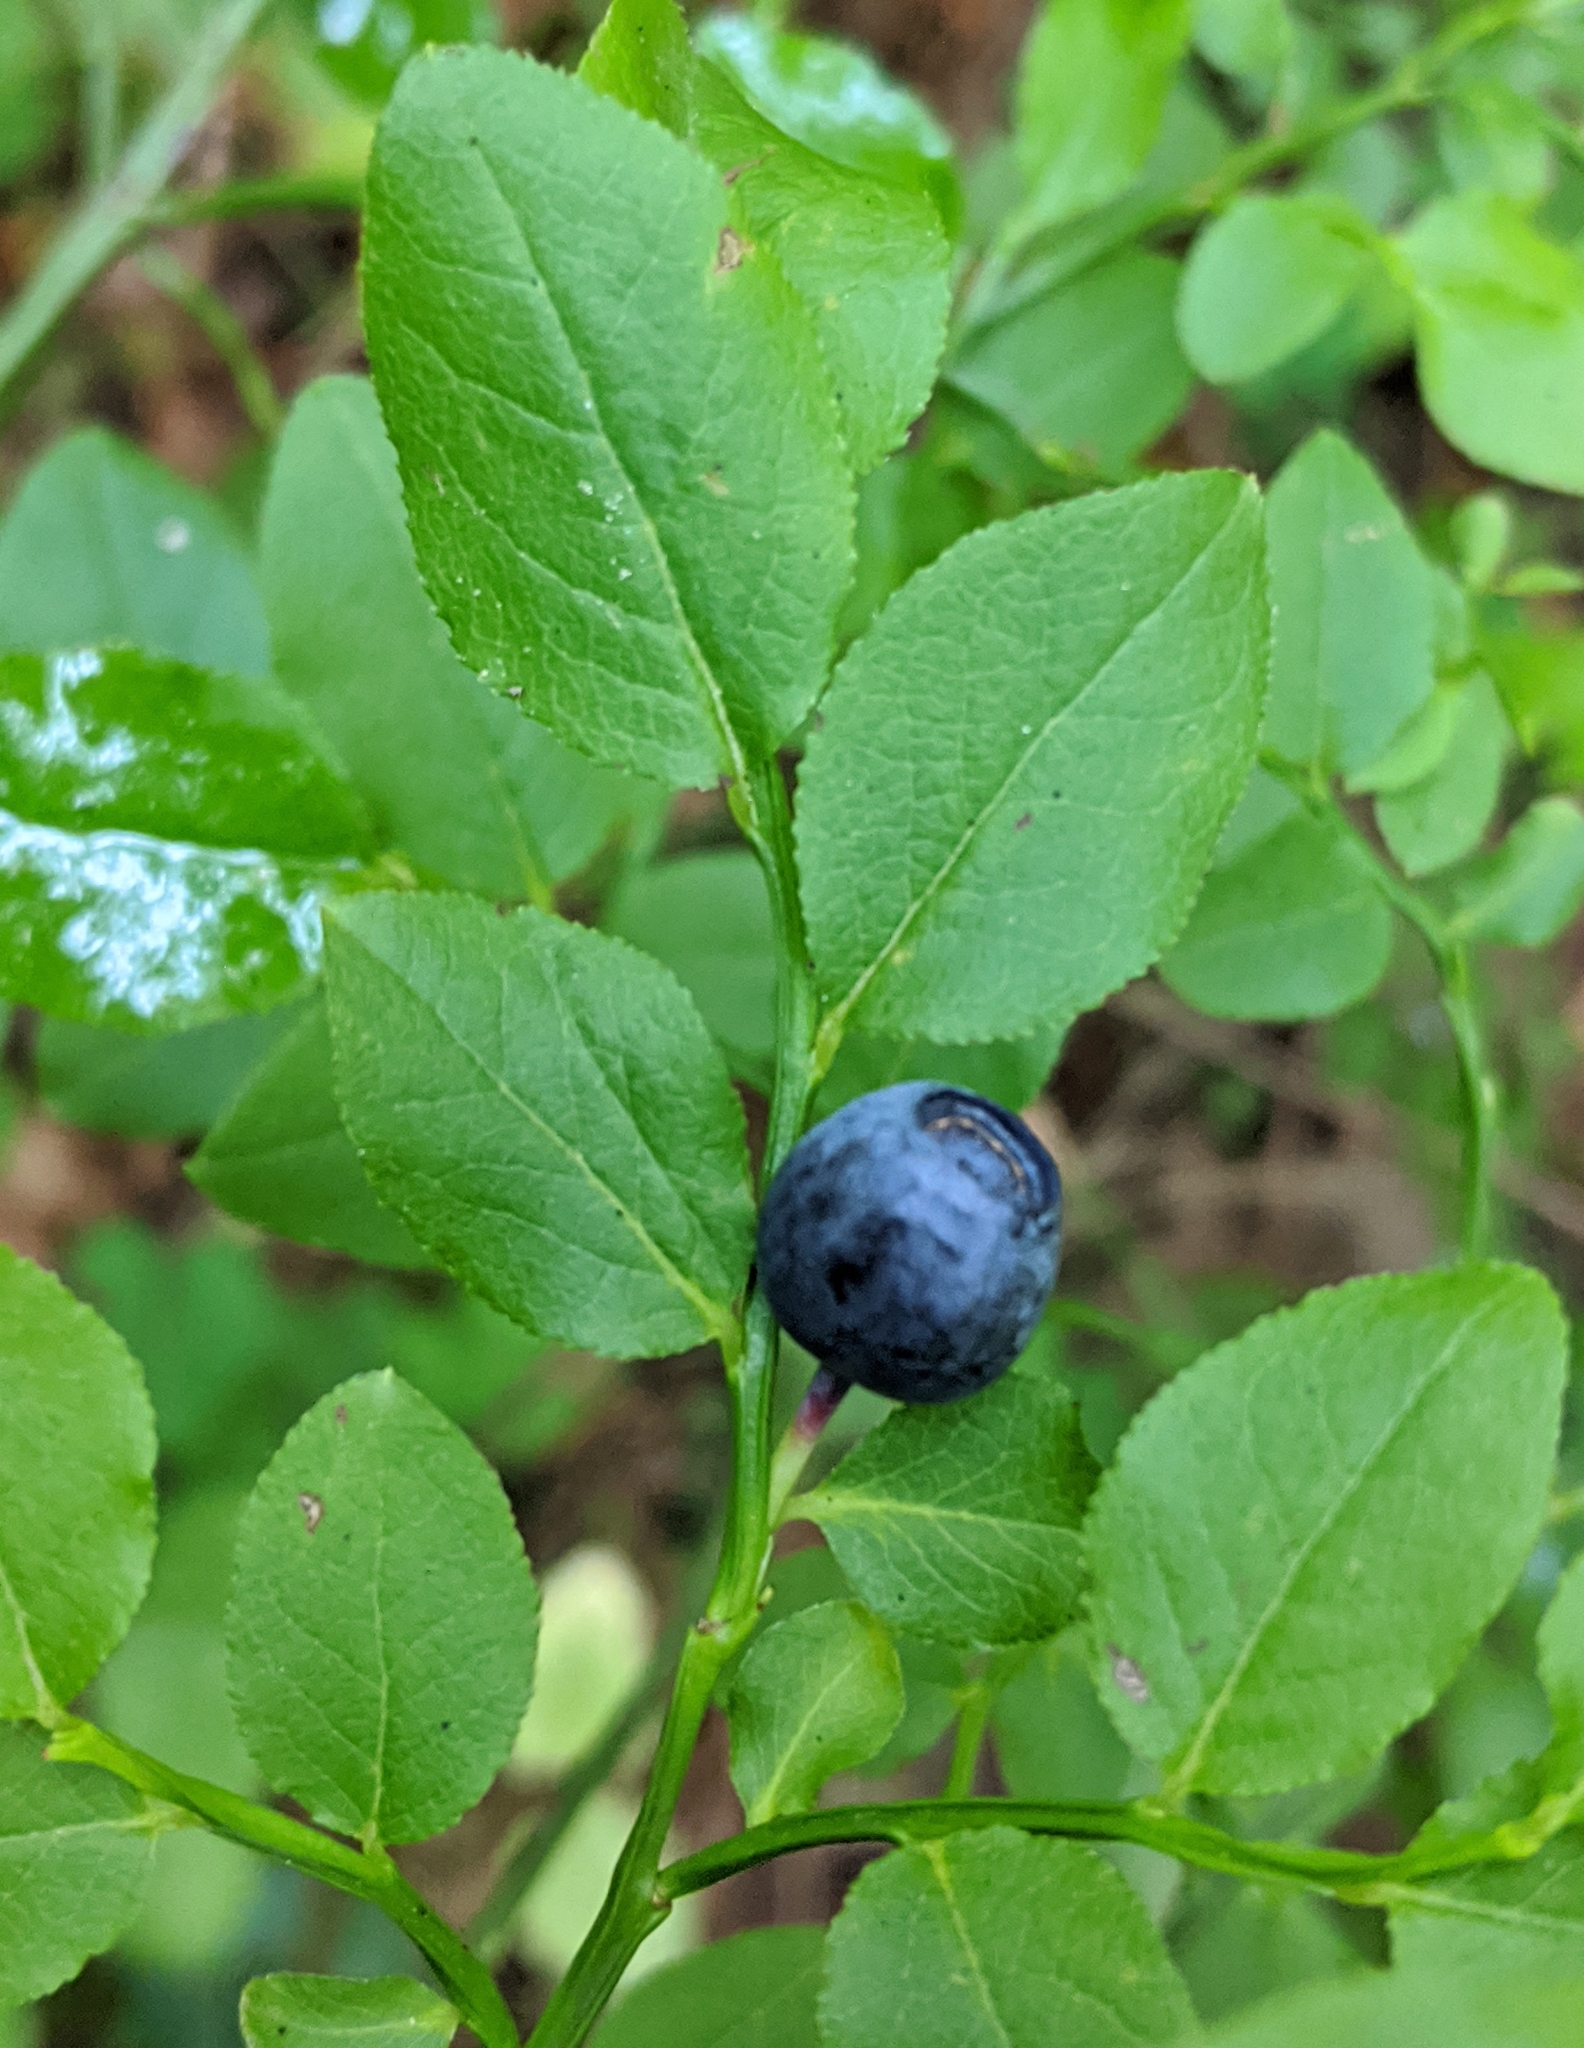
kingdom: Plantae
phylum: Tracheophyta
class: Magnoliopsida
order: Ericales
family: Ericaceae
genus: Vaccinium
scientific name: Vaccinium myrtillus
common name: Bilberry
